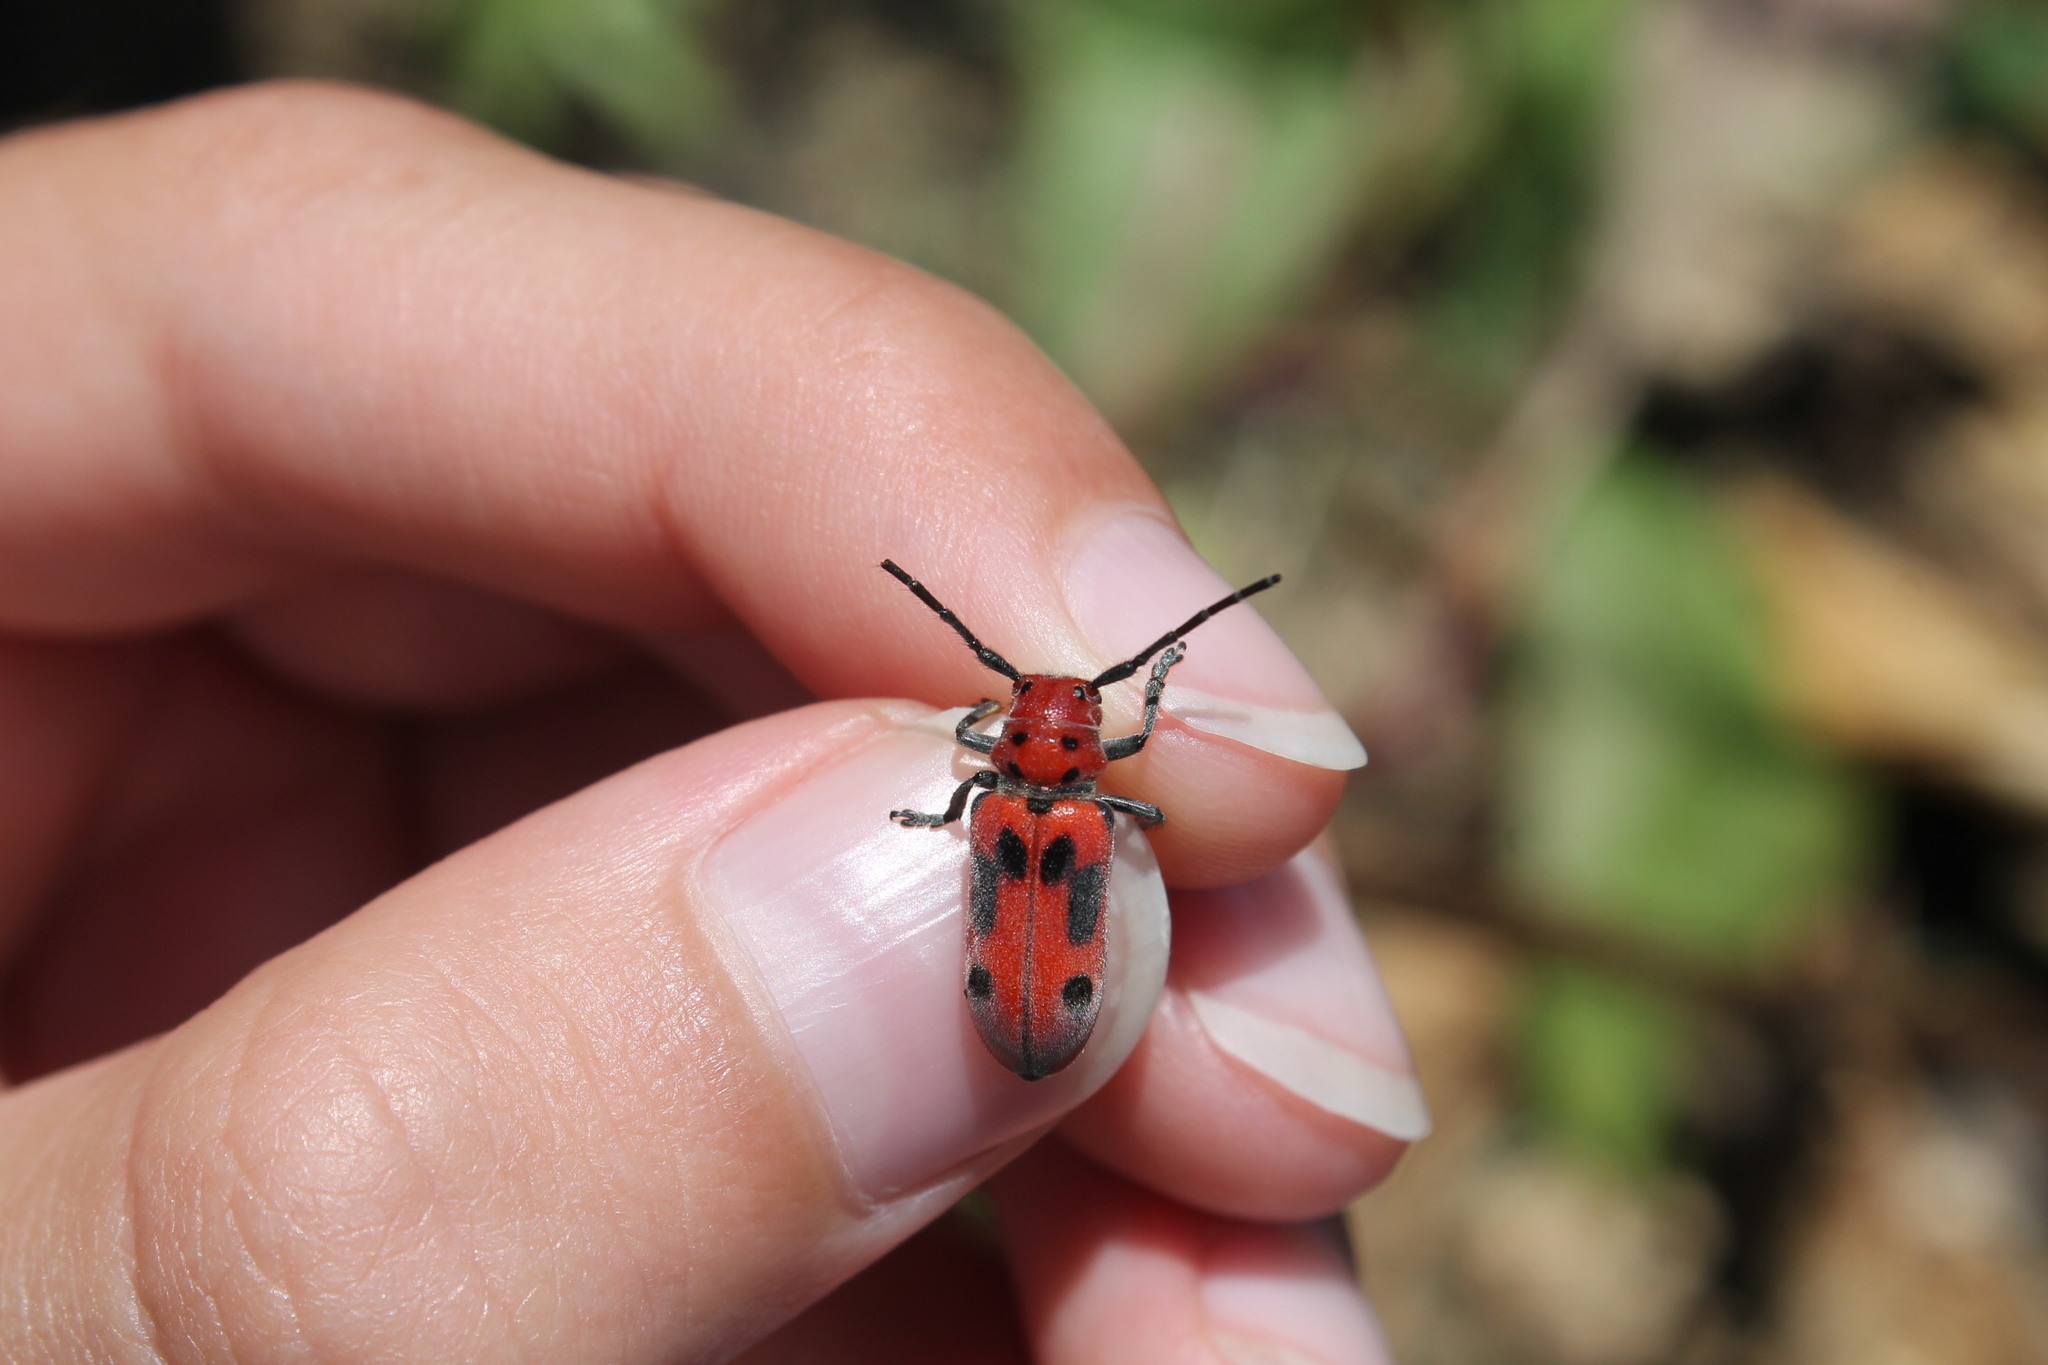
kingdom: Animalia
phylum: Arthropoda
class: Insecta
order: Coleoptera
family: Cerambycidae
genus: Tetraopes
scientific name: Tetraopes tetrophthalmus
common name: Red milkweed beetle
